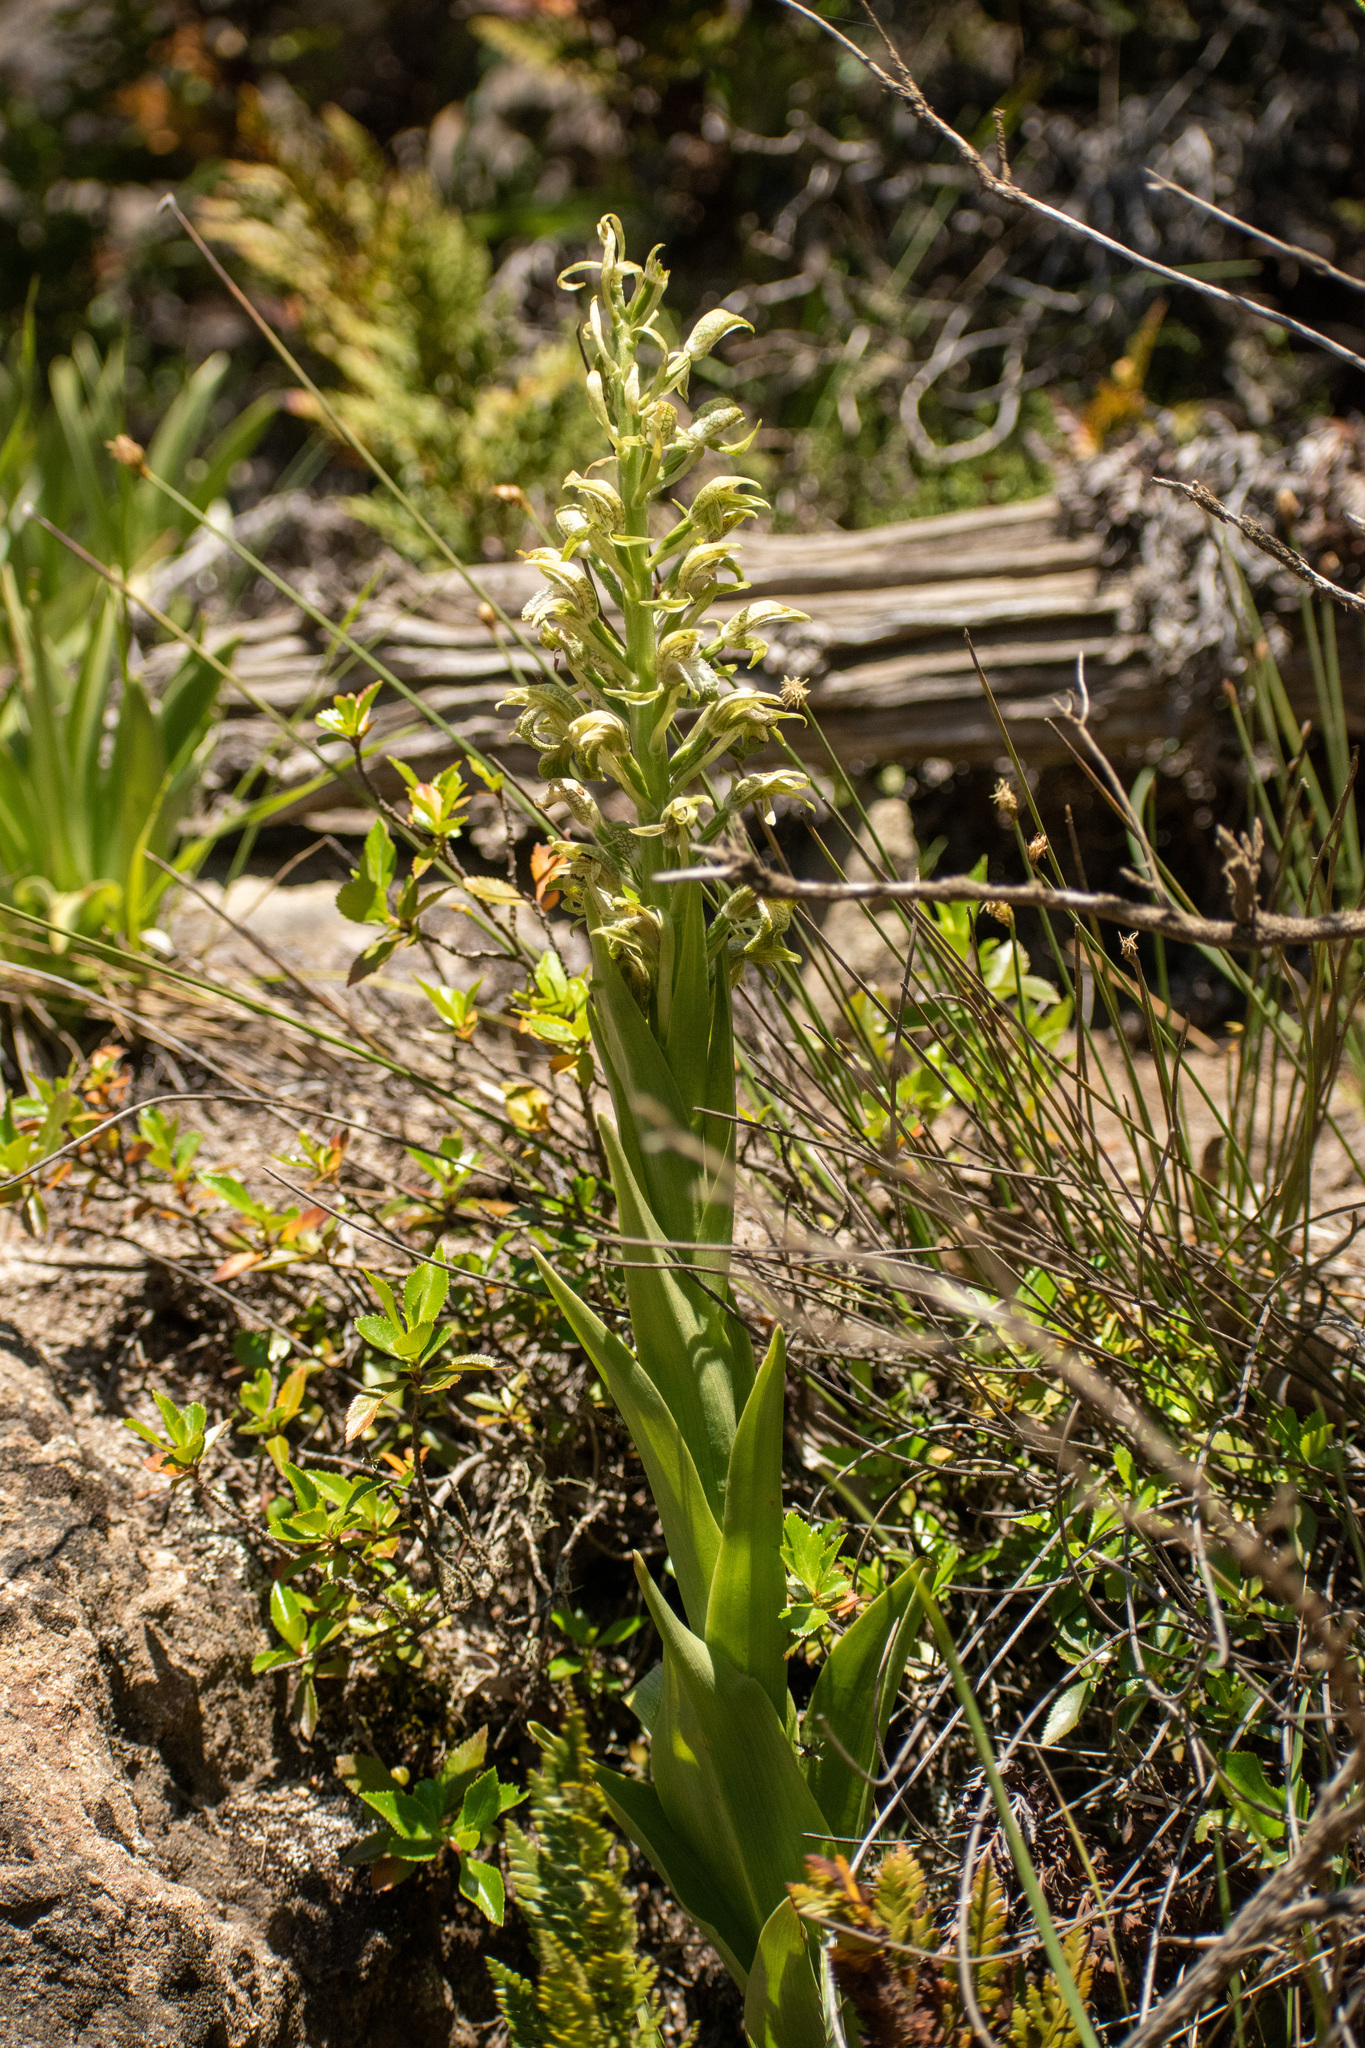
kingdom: Plantae
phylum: Tracheophyta
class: Liliopsida
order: Asparagales
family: Orchidaceae
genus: Chloraea
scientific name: Chloraea cylindrostachya
